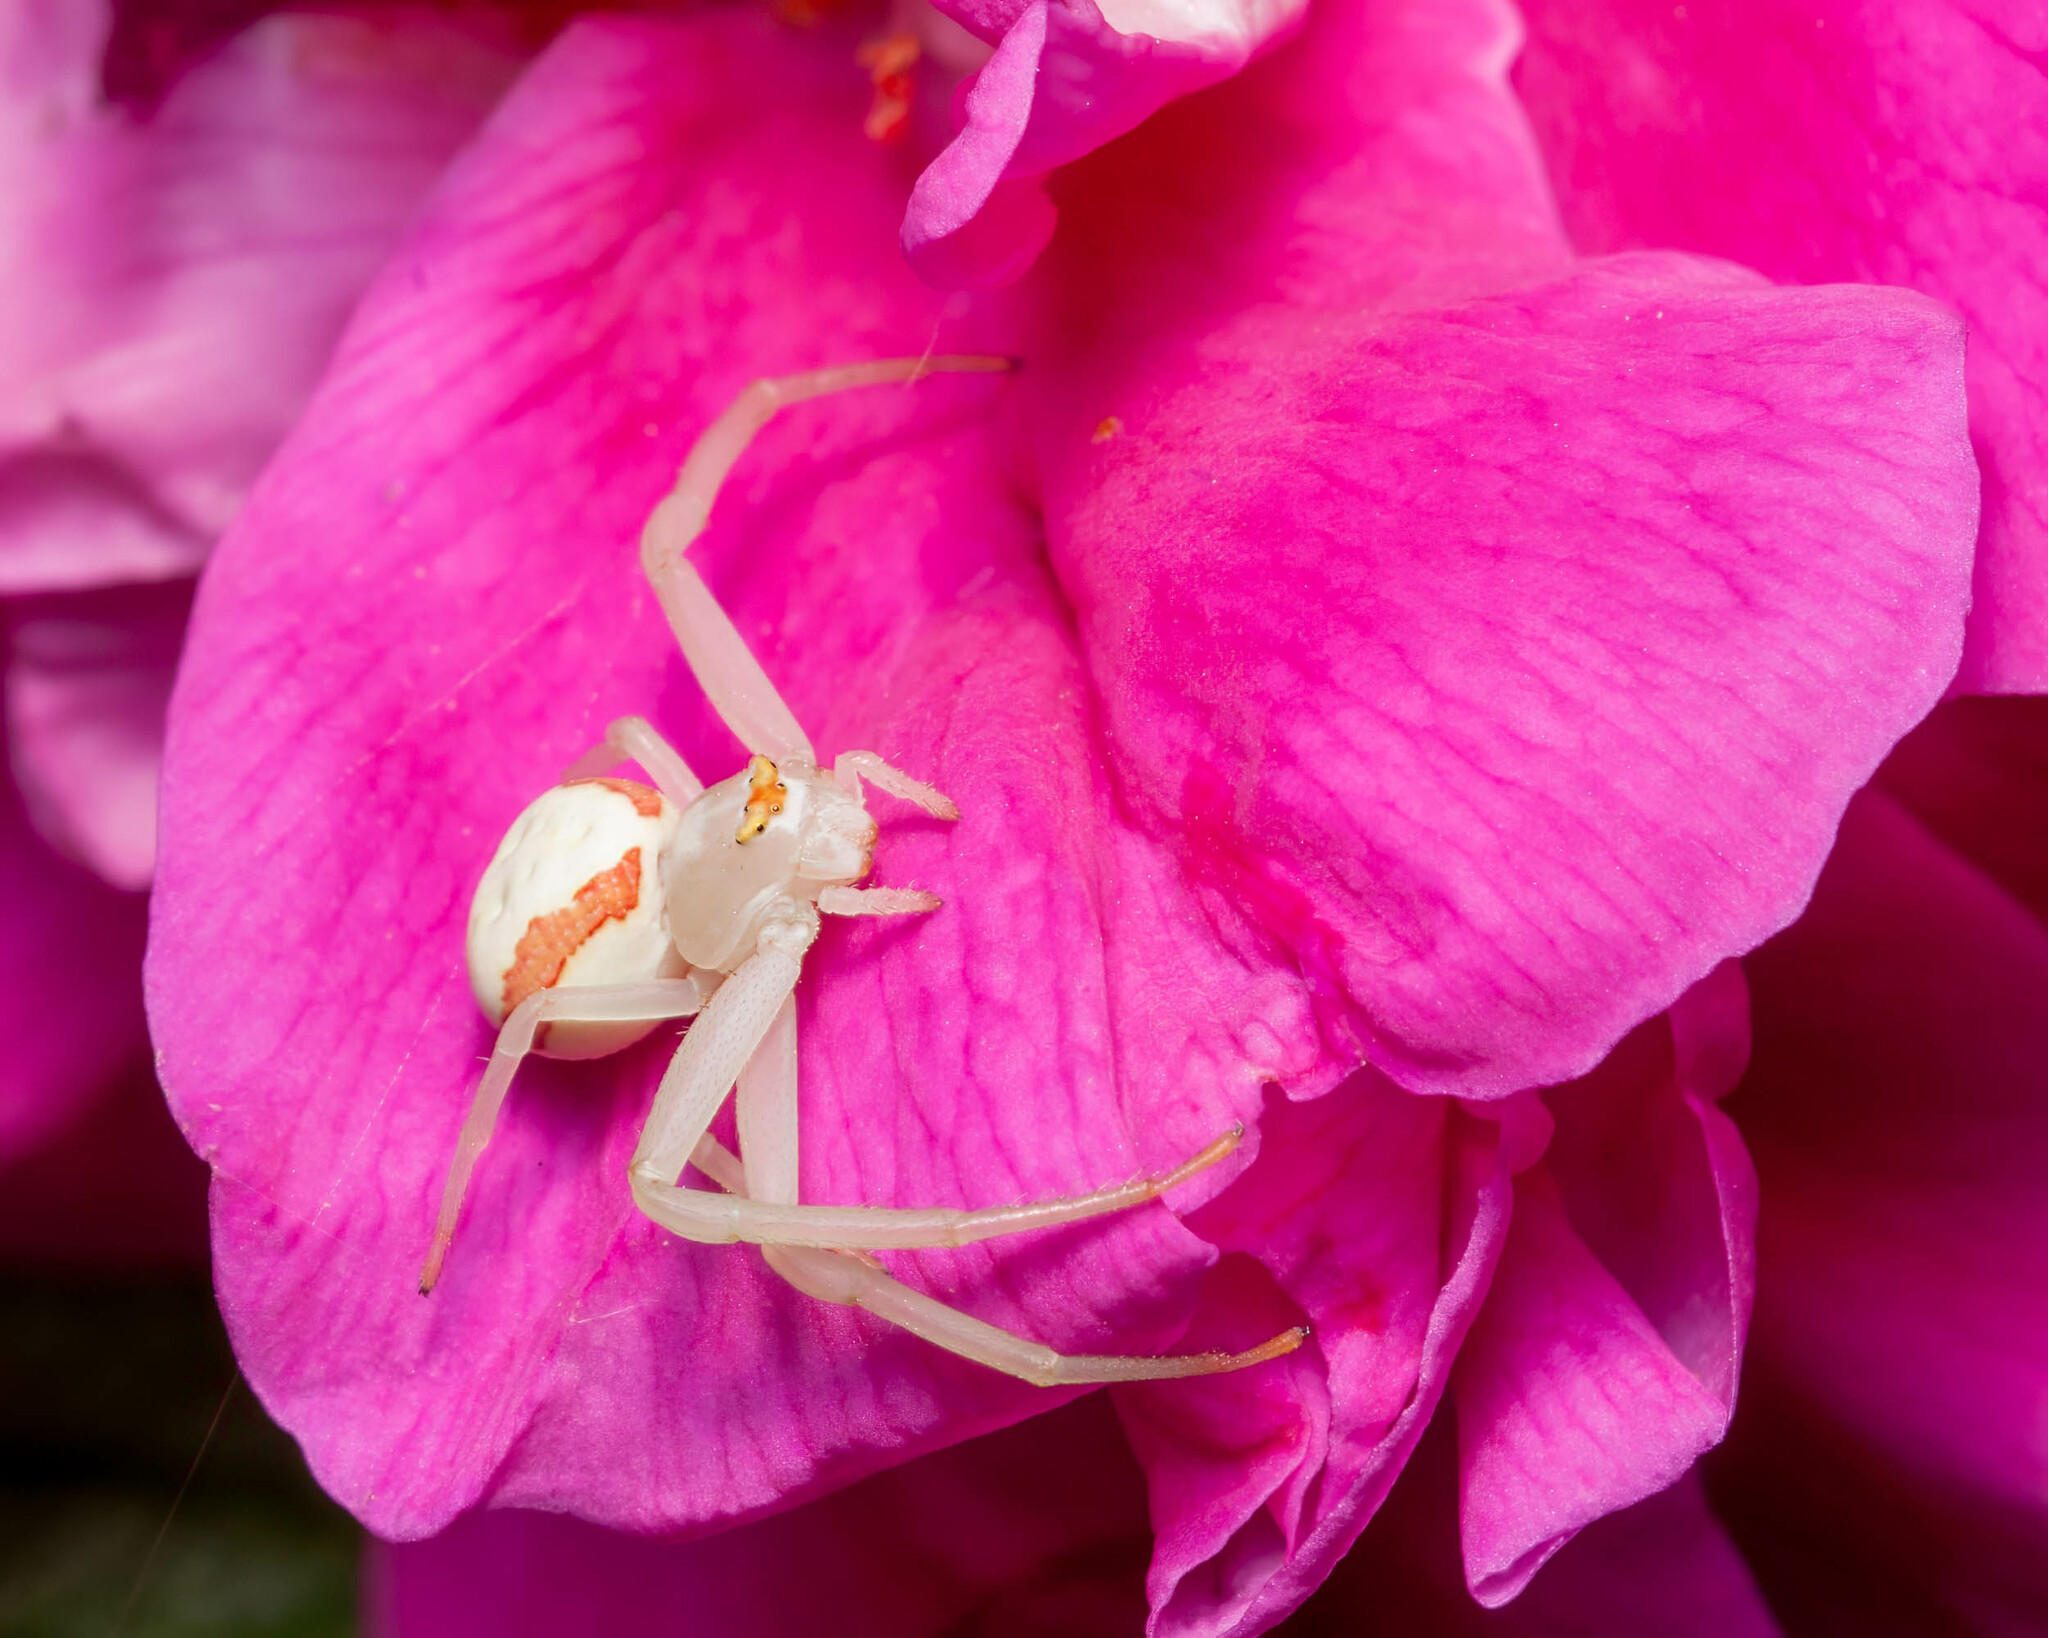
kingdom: Animalia
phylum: Arthropoda
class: Arachnida
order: Araneae
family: Thomisidae
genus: Misumena
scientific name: Misumena vatia
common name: Goldenrod crab spider
